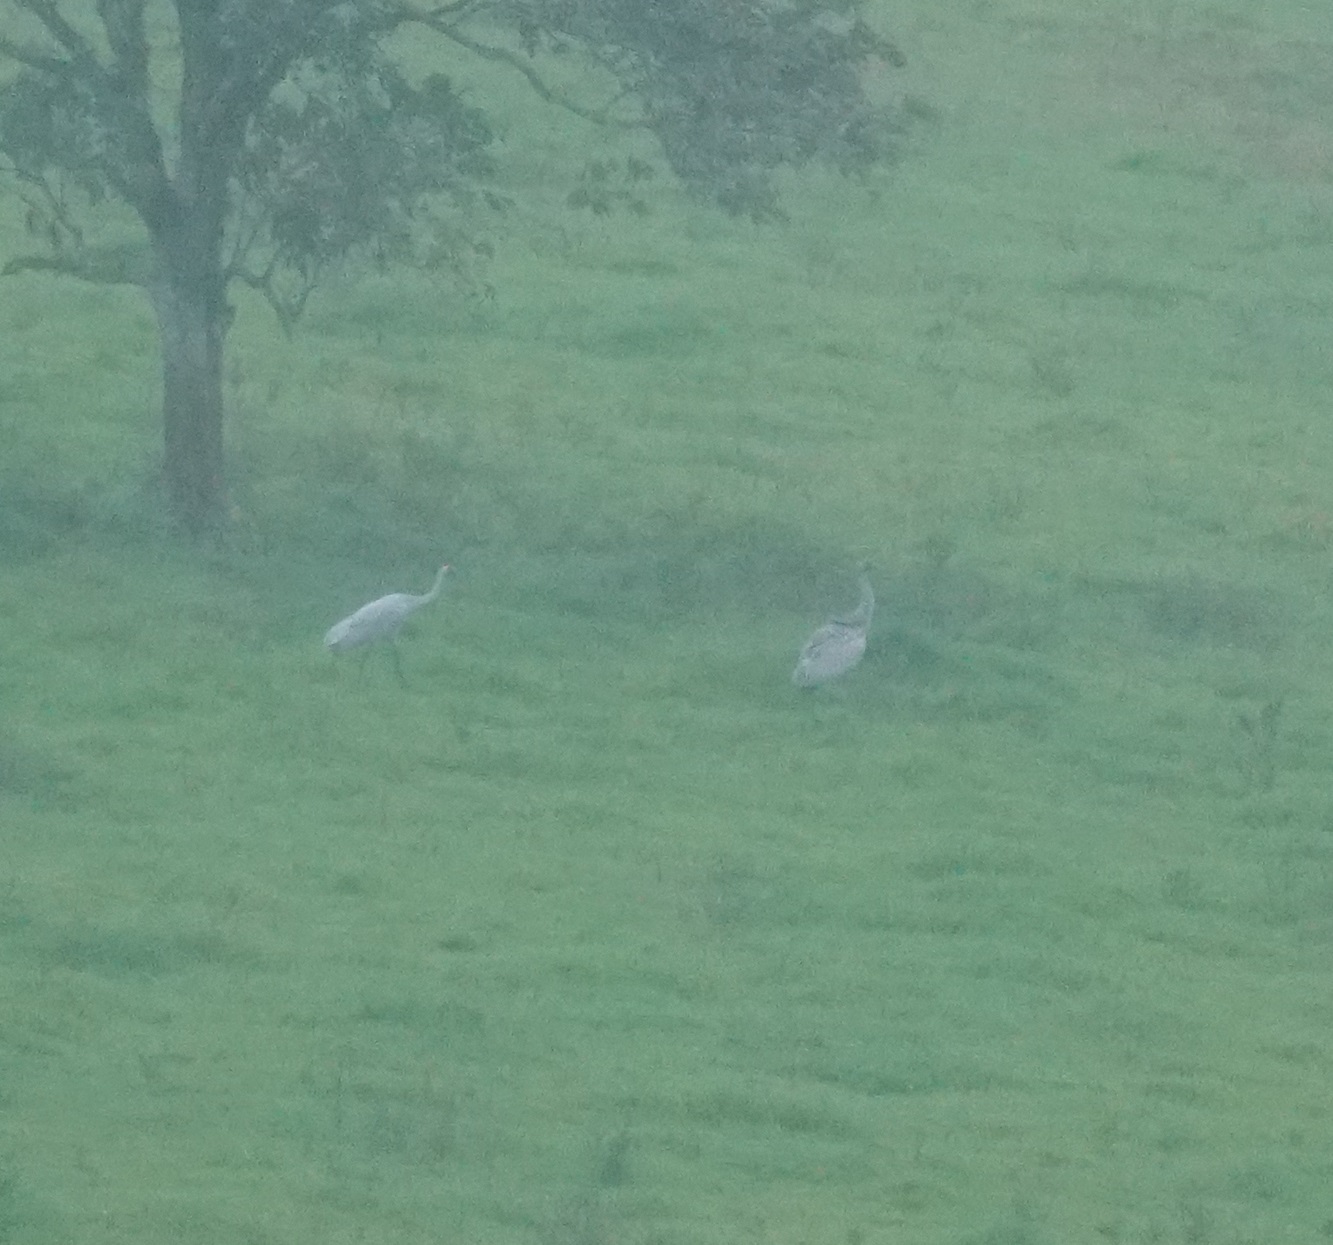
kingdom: Animalia
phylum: Chordata
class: Aves
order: Gruiformes
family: Gruidae
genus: Grus
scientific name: Grus rubicunda
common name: Brolga
